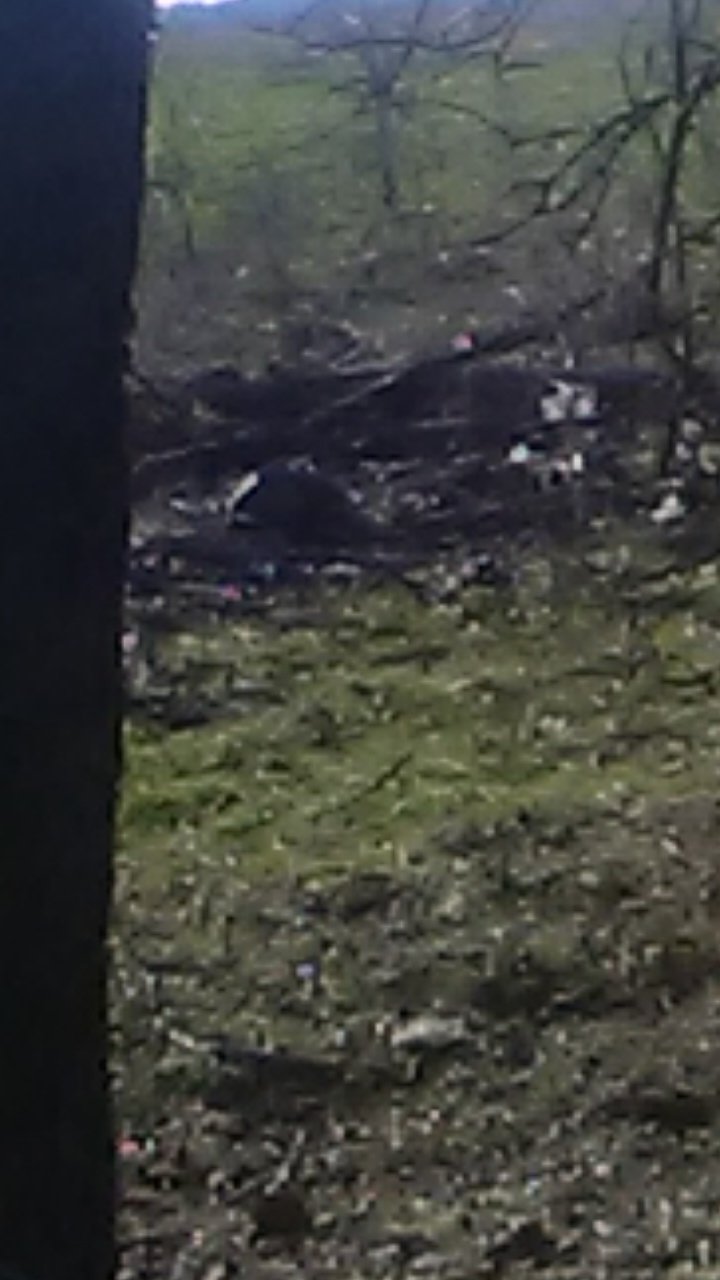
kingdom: Animalia
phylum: Chordata
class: Mammalia
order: Cingulata
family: Dasypodidae
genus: Dasypus
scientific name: Dasypus novemcinctus
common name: Nine-banded armadillo
